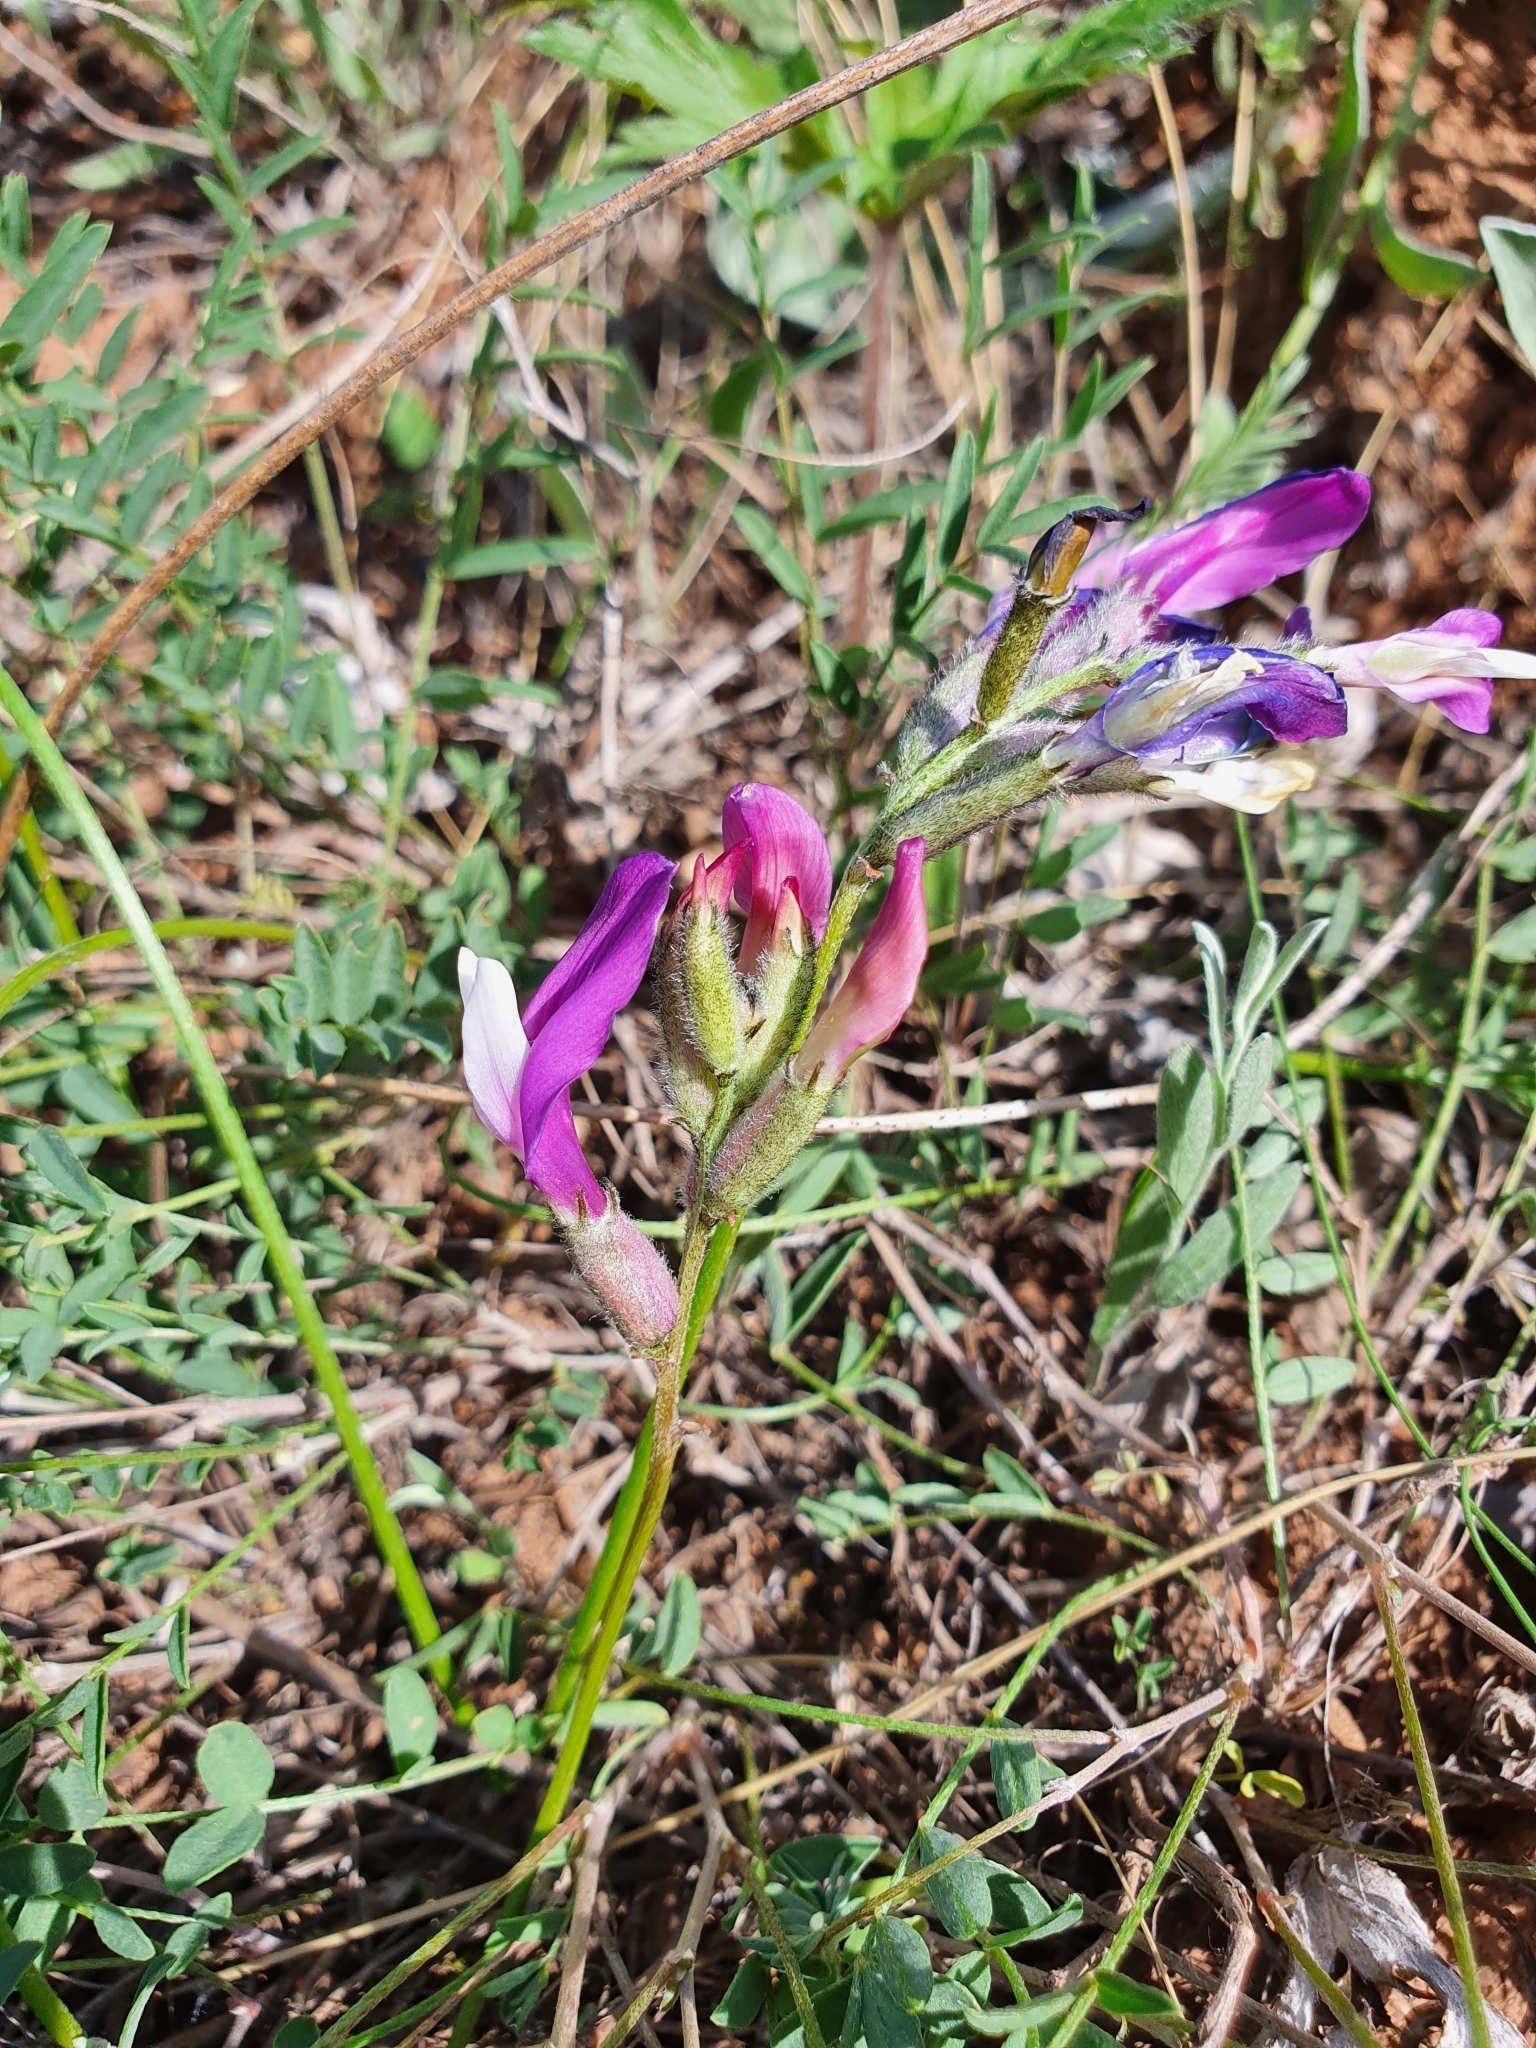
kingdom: Plantae
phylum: Tracheophyta
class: Magnoliopsida
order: Fabales
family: Fabaceae
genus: Astragalus
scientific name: Astragalus macropus
